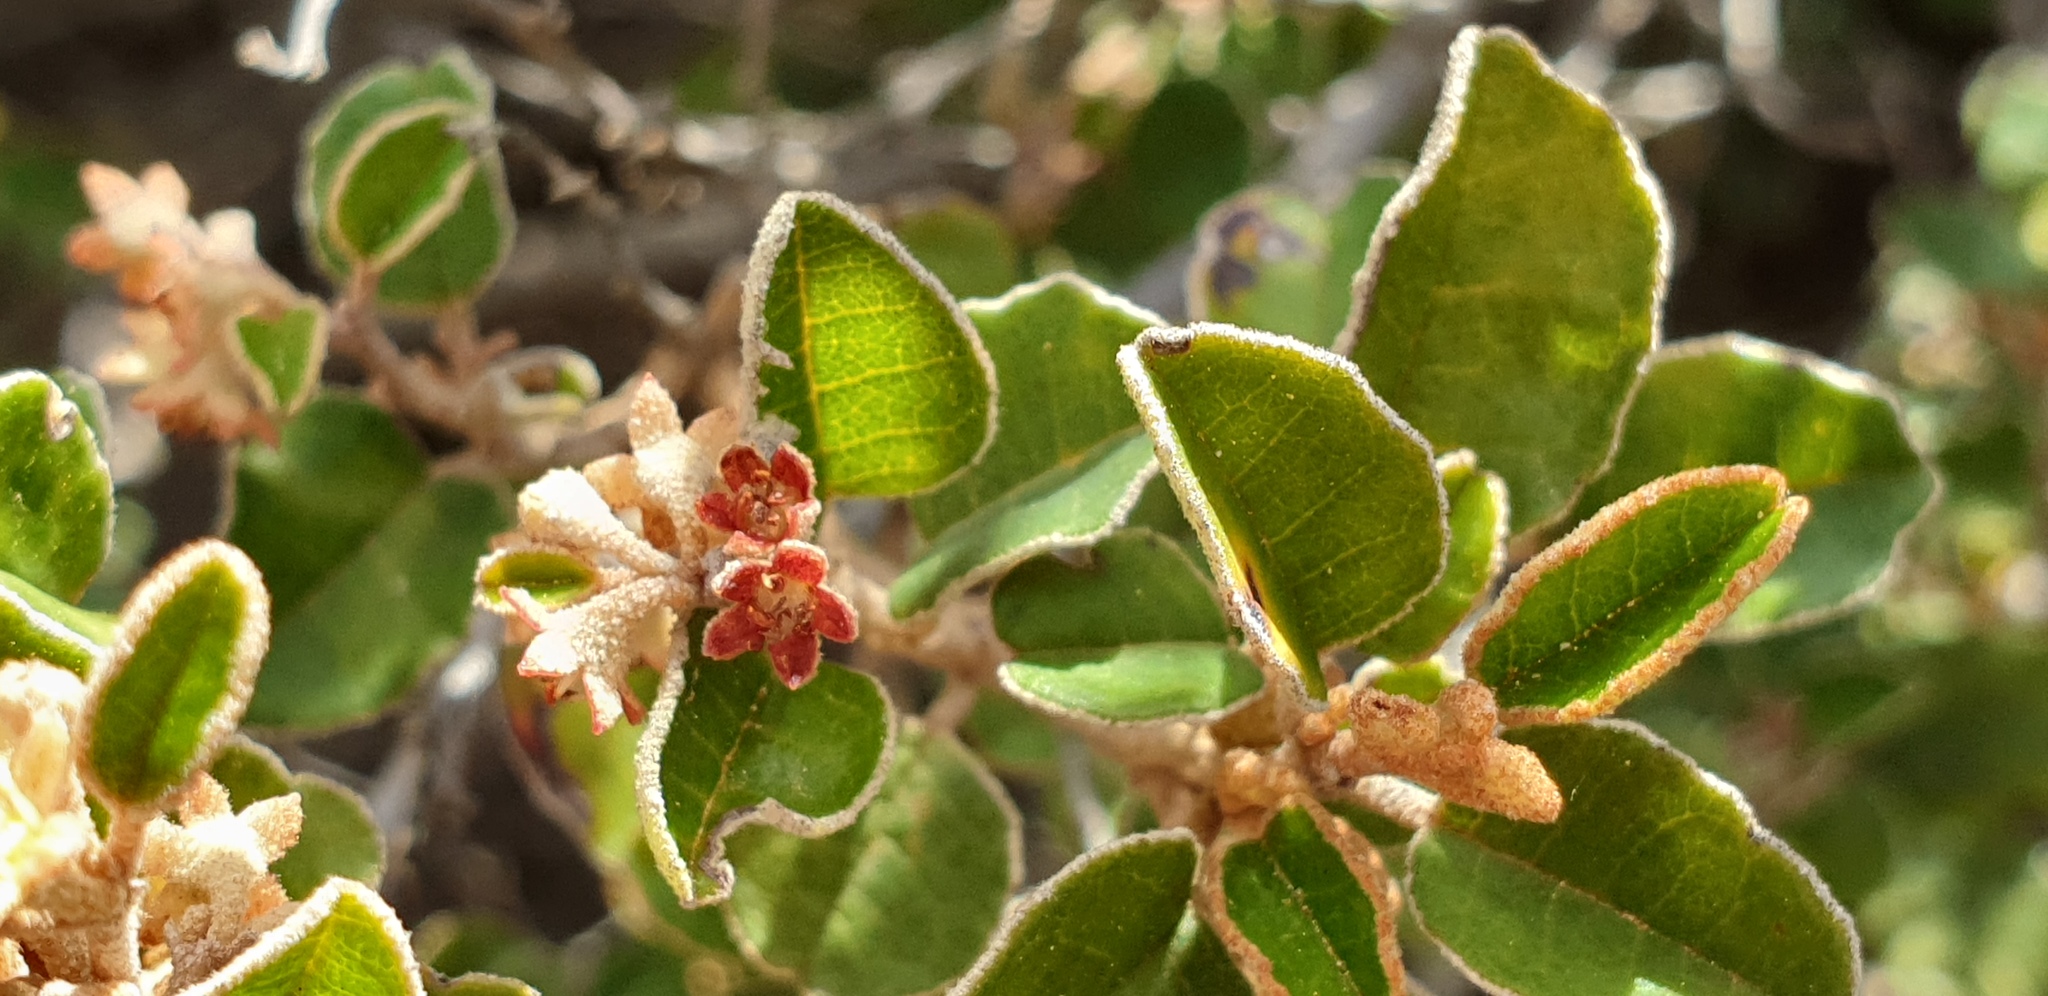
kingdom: Plantae
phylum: Tracheophyta
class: Magnoliopsida
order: Rosales
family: Rhamnaceae
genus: Pomaderris
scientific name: Pomaderris paniculosa
